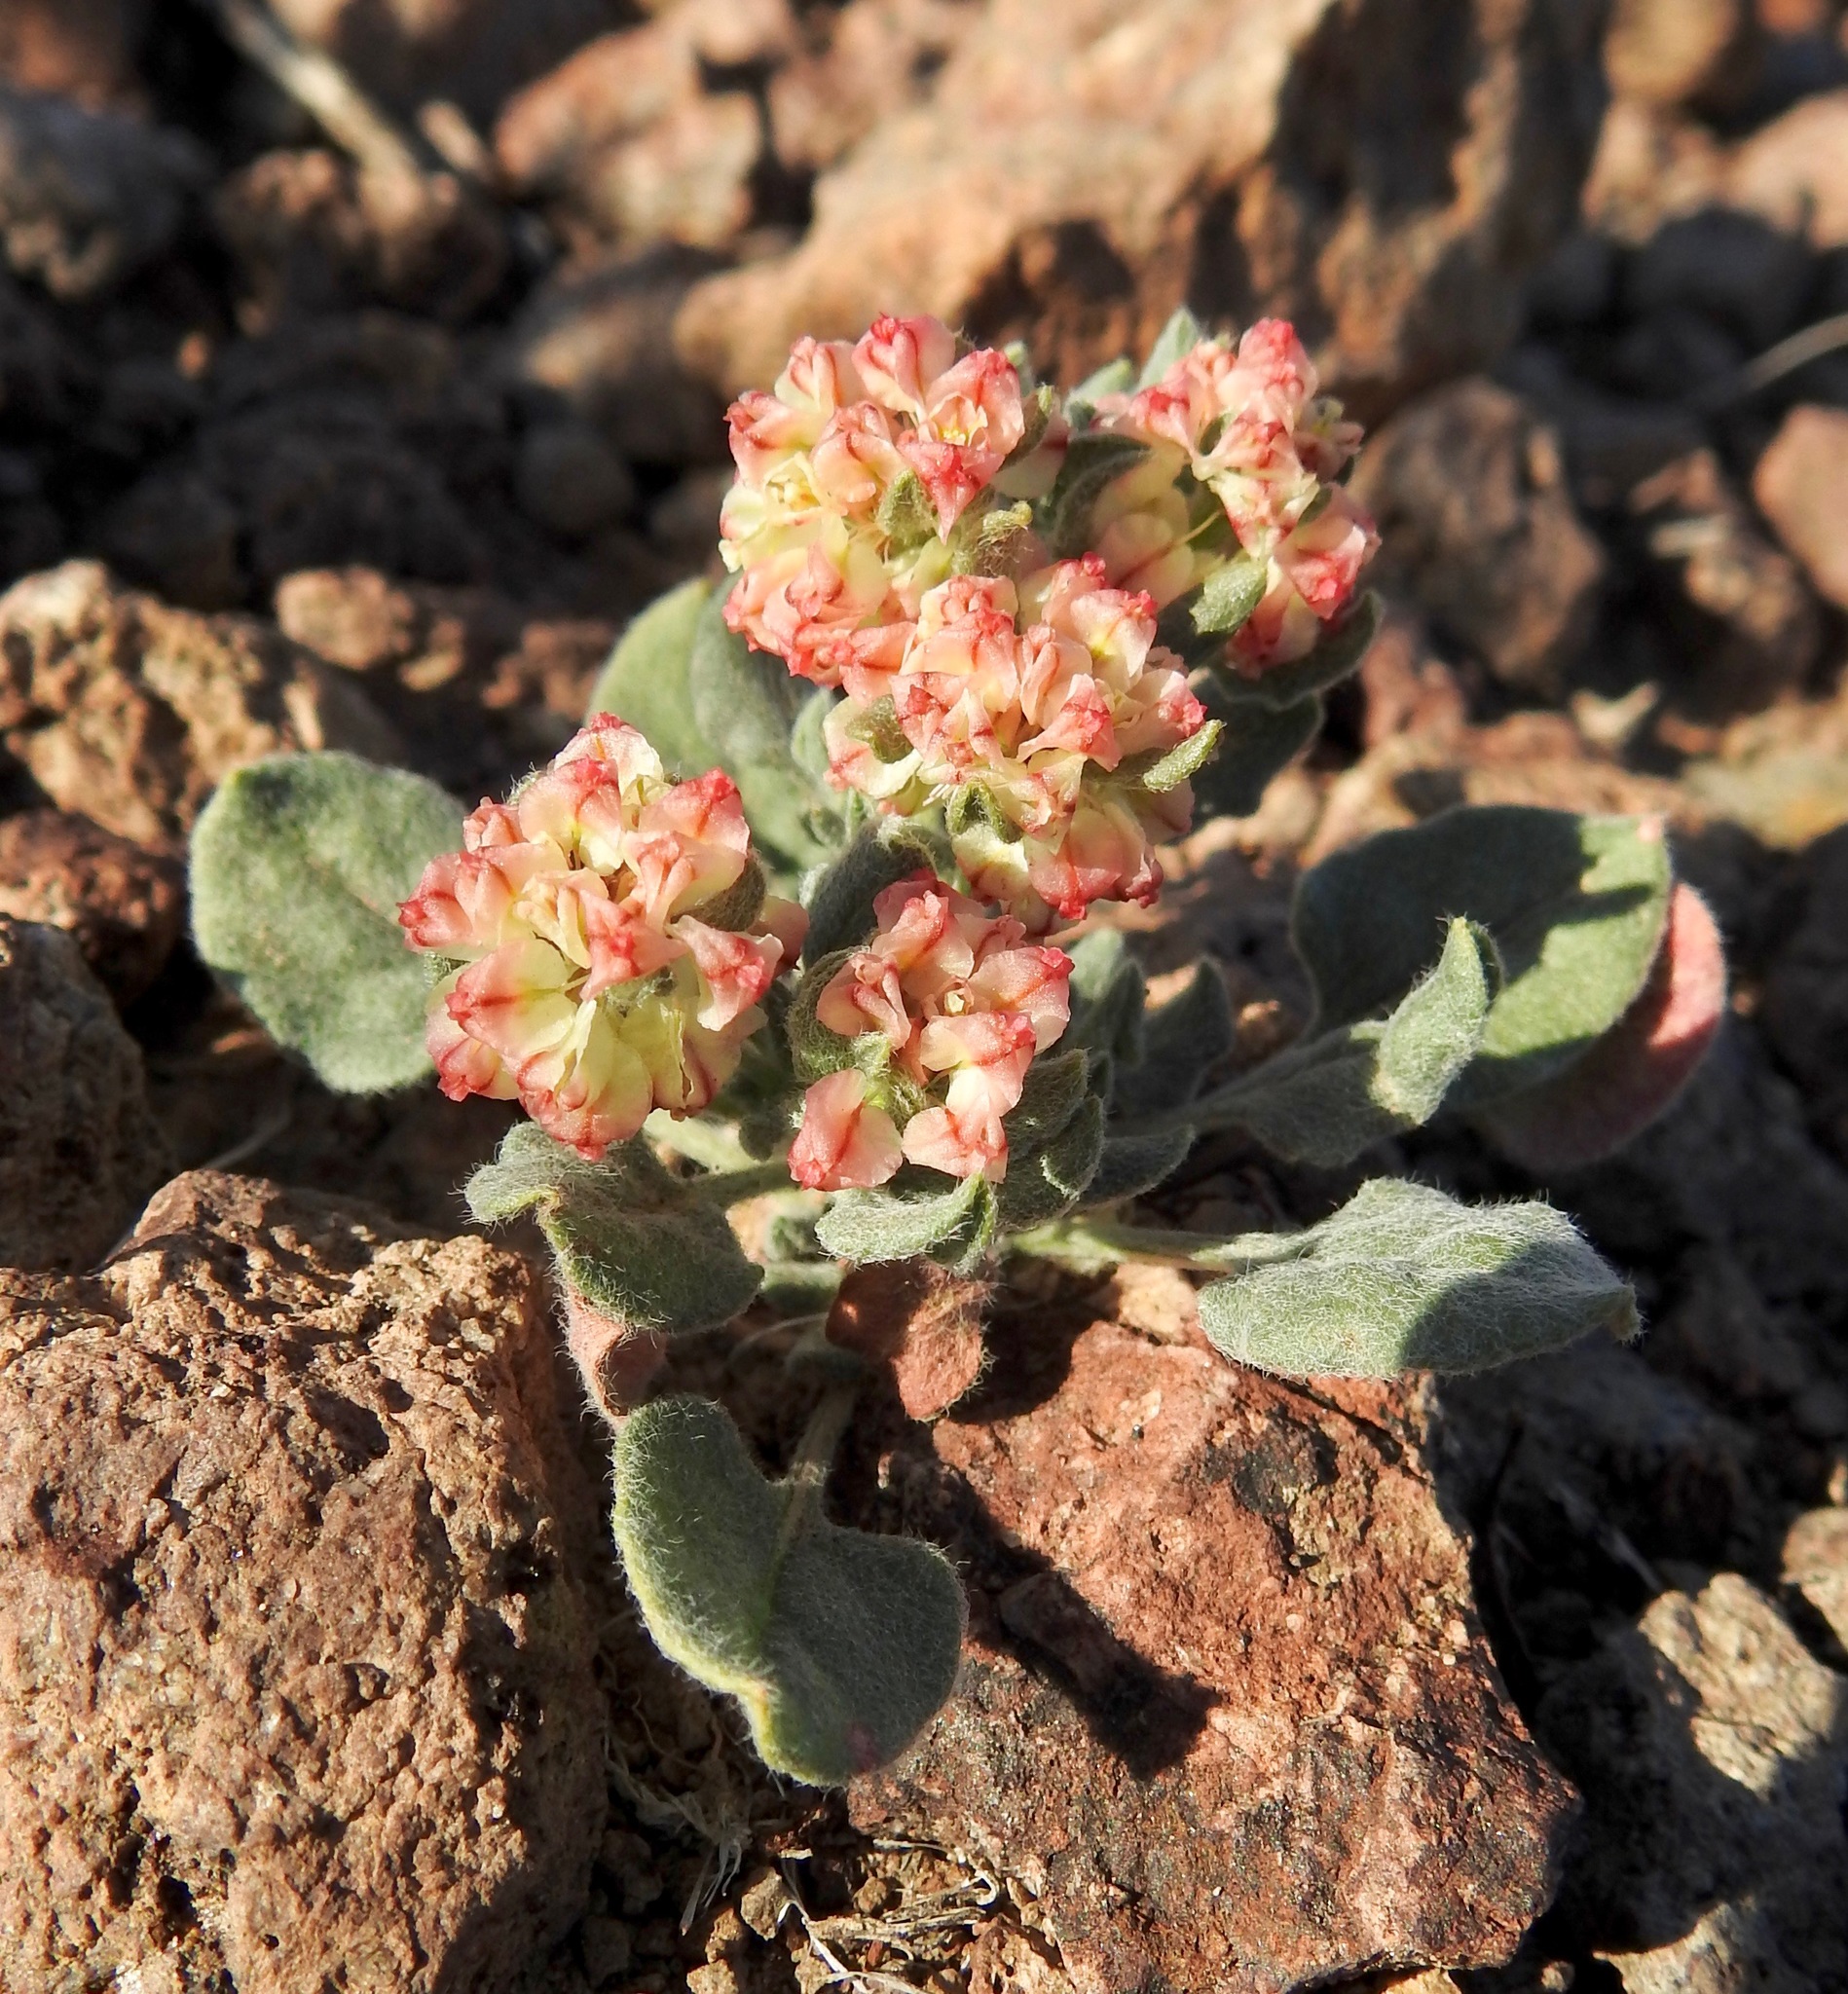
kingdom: Plantae
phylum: Tracheophyta
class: Magnoliopsida
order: Caryophyllales
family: Polygonaceae
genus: Eriogonum
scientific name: Eriogonum abertianum
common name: Abert's wild buckwheat
